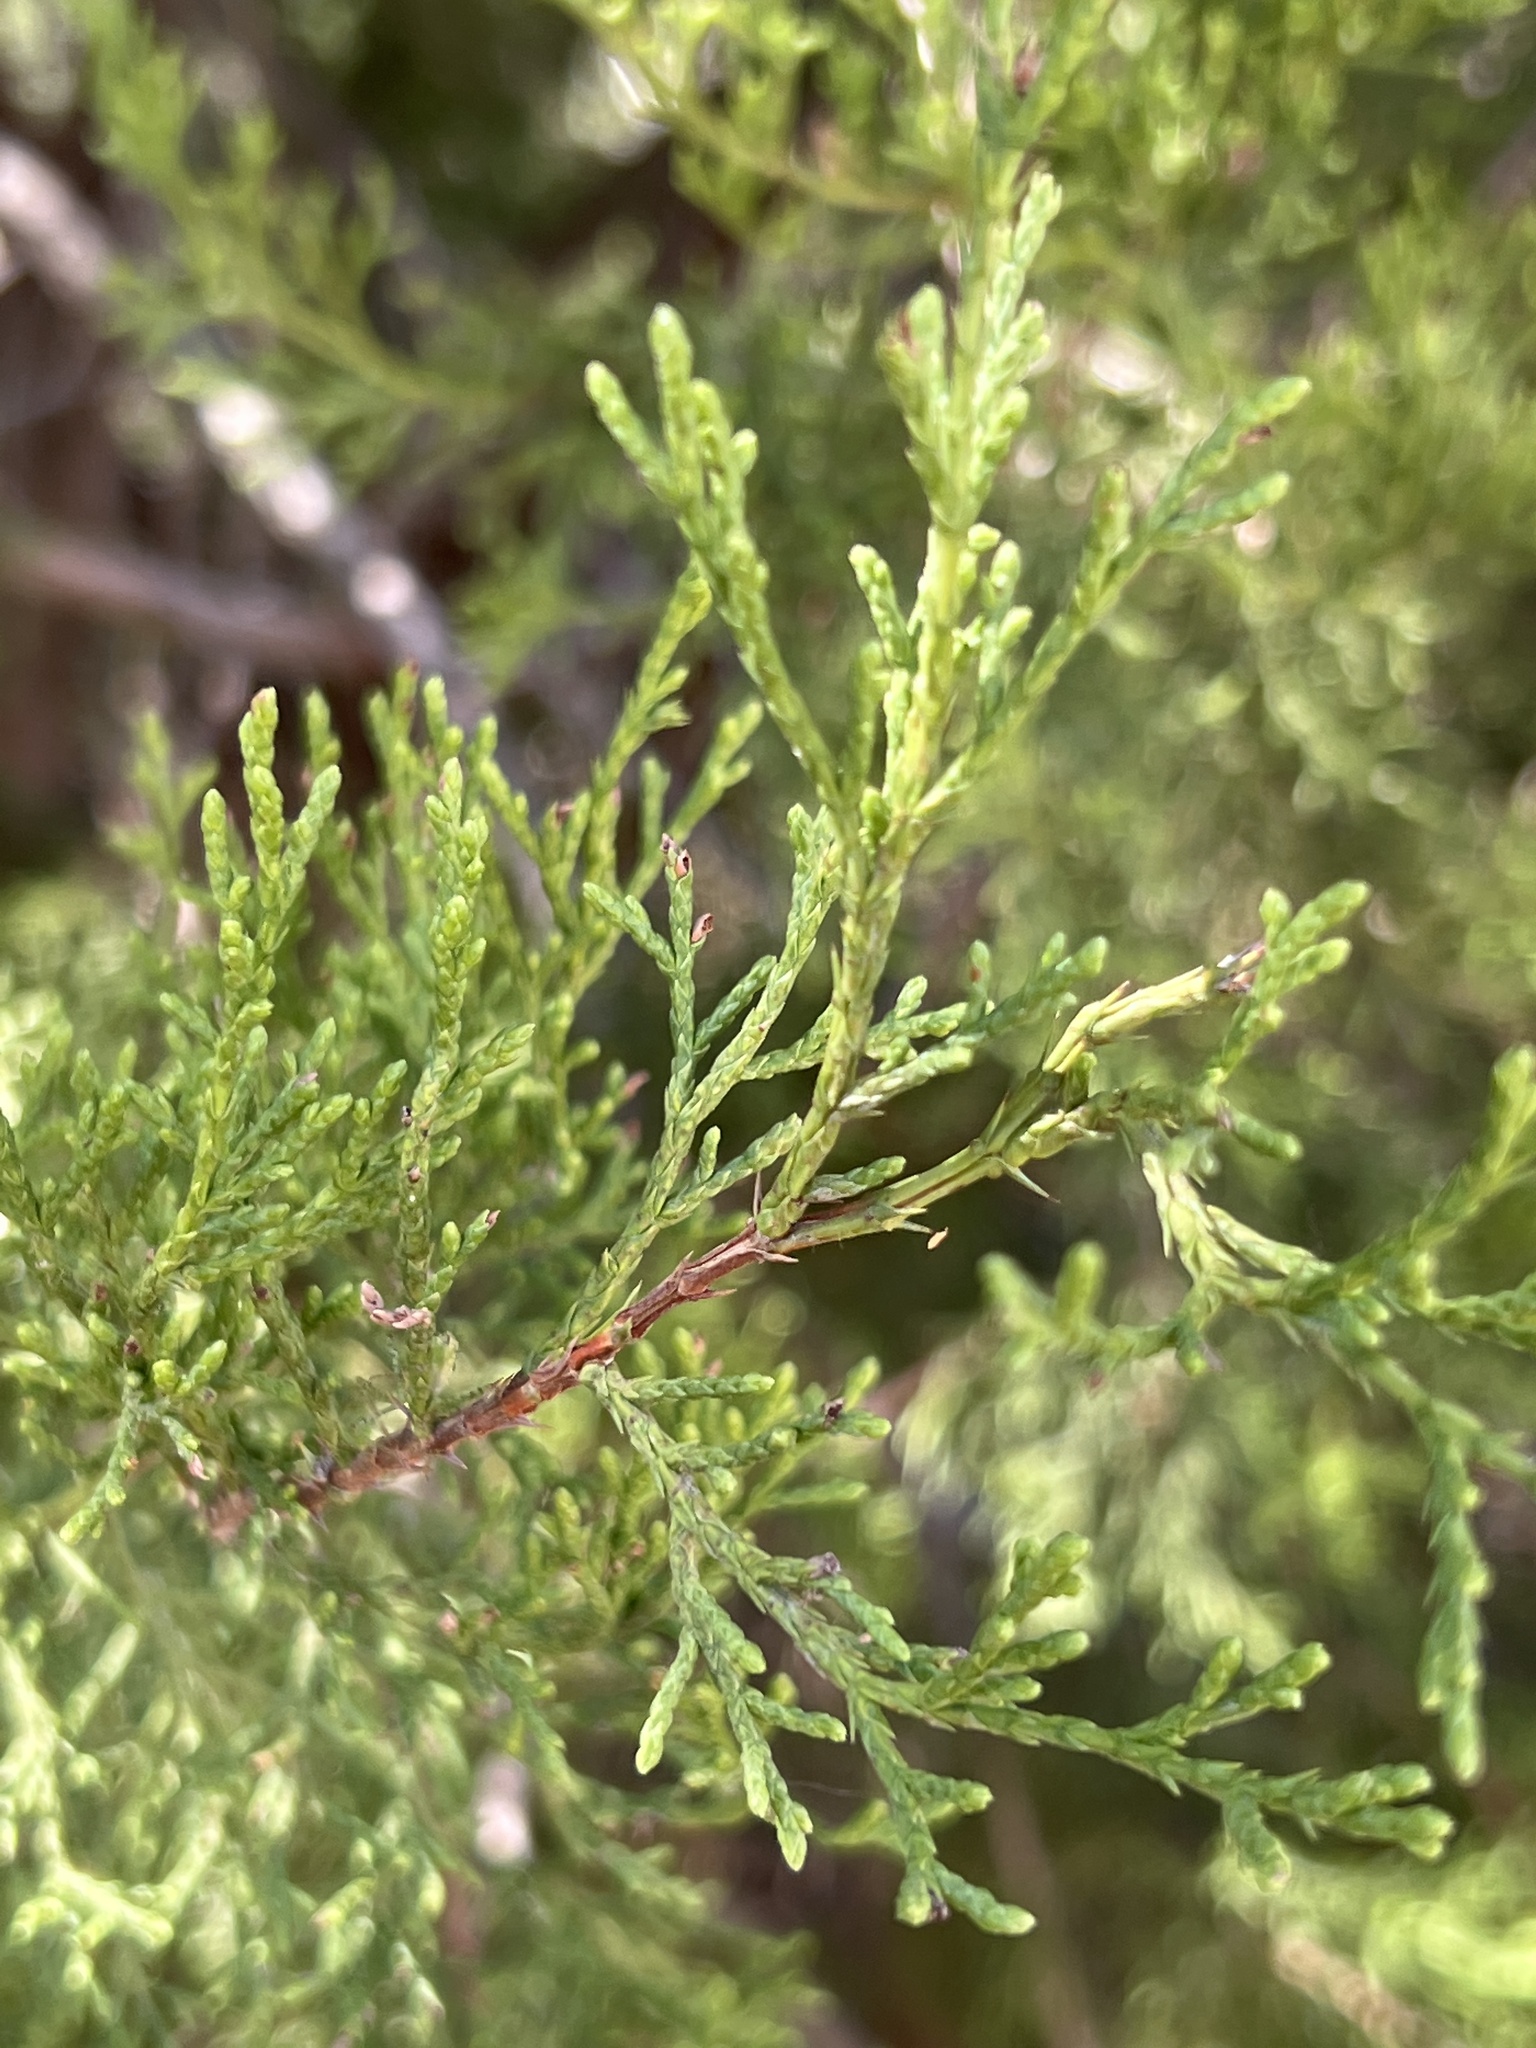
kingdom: Plantae
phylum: Tracheophyta
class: Pinopsida
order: Pinales
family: Cupressaceae
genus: Juniperus
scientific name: Juniperus ashei
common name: Mexican juniper
